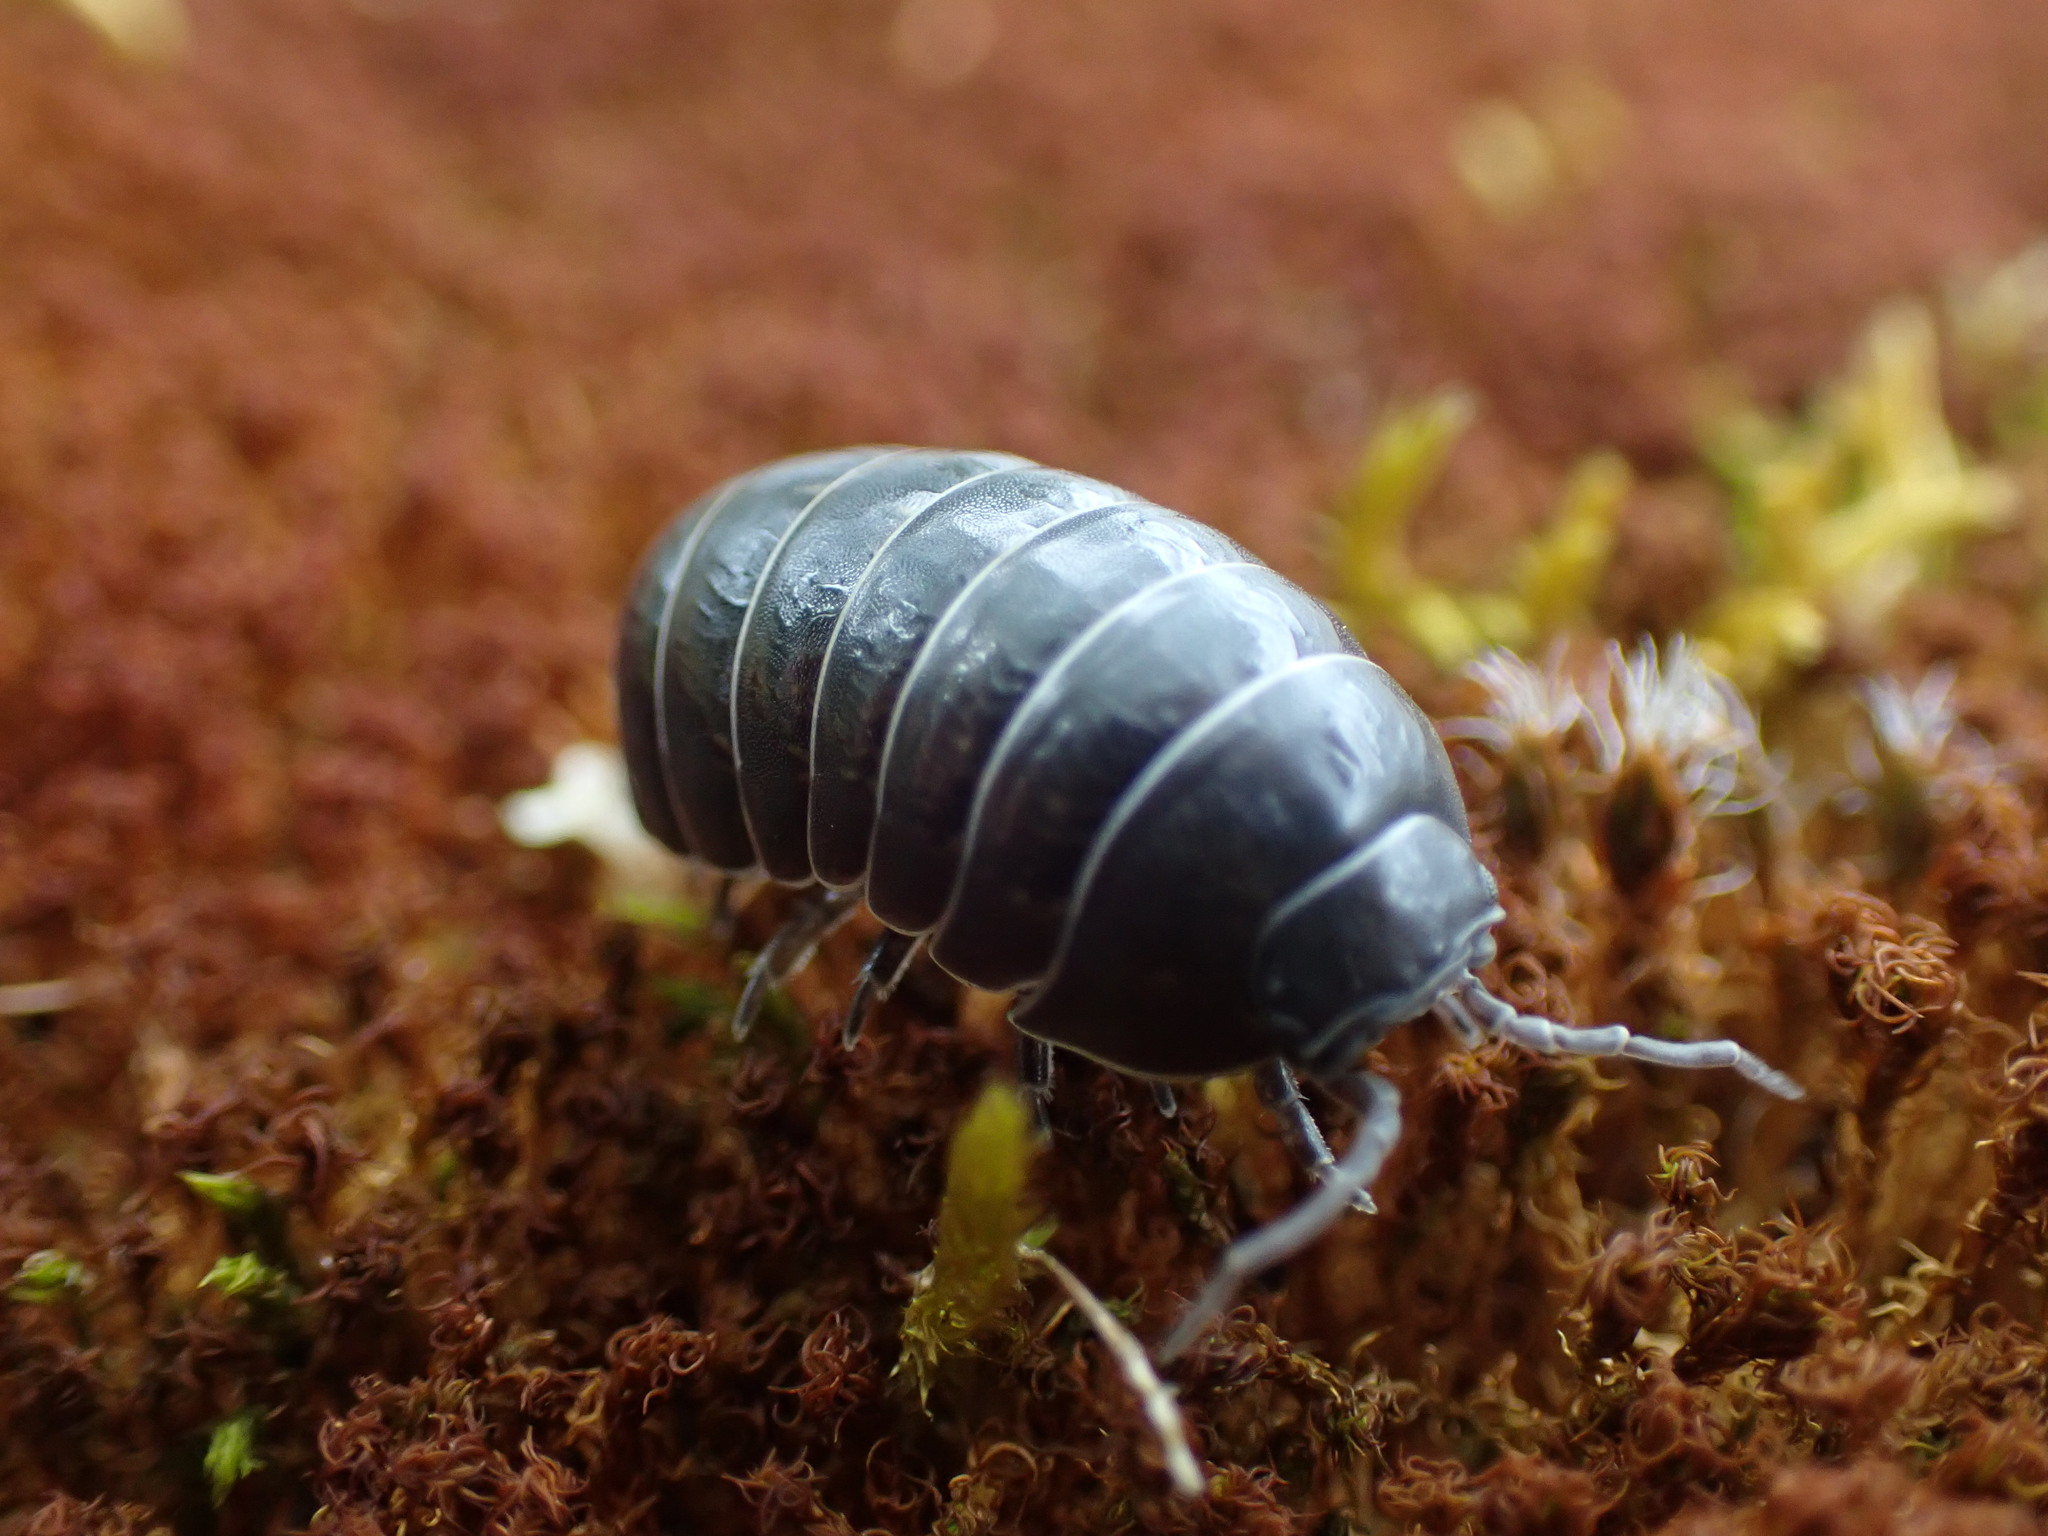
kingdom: Animalia
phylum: Arthropoda
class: Malacostraca
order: Isopoda
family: Armadillidiidae
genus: Armadillidium
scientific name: Armadillidium vulgare
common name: Common pill woodlouse
